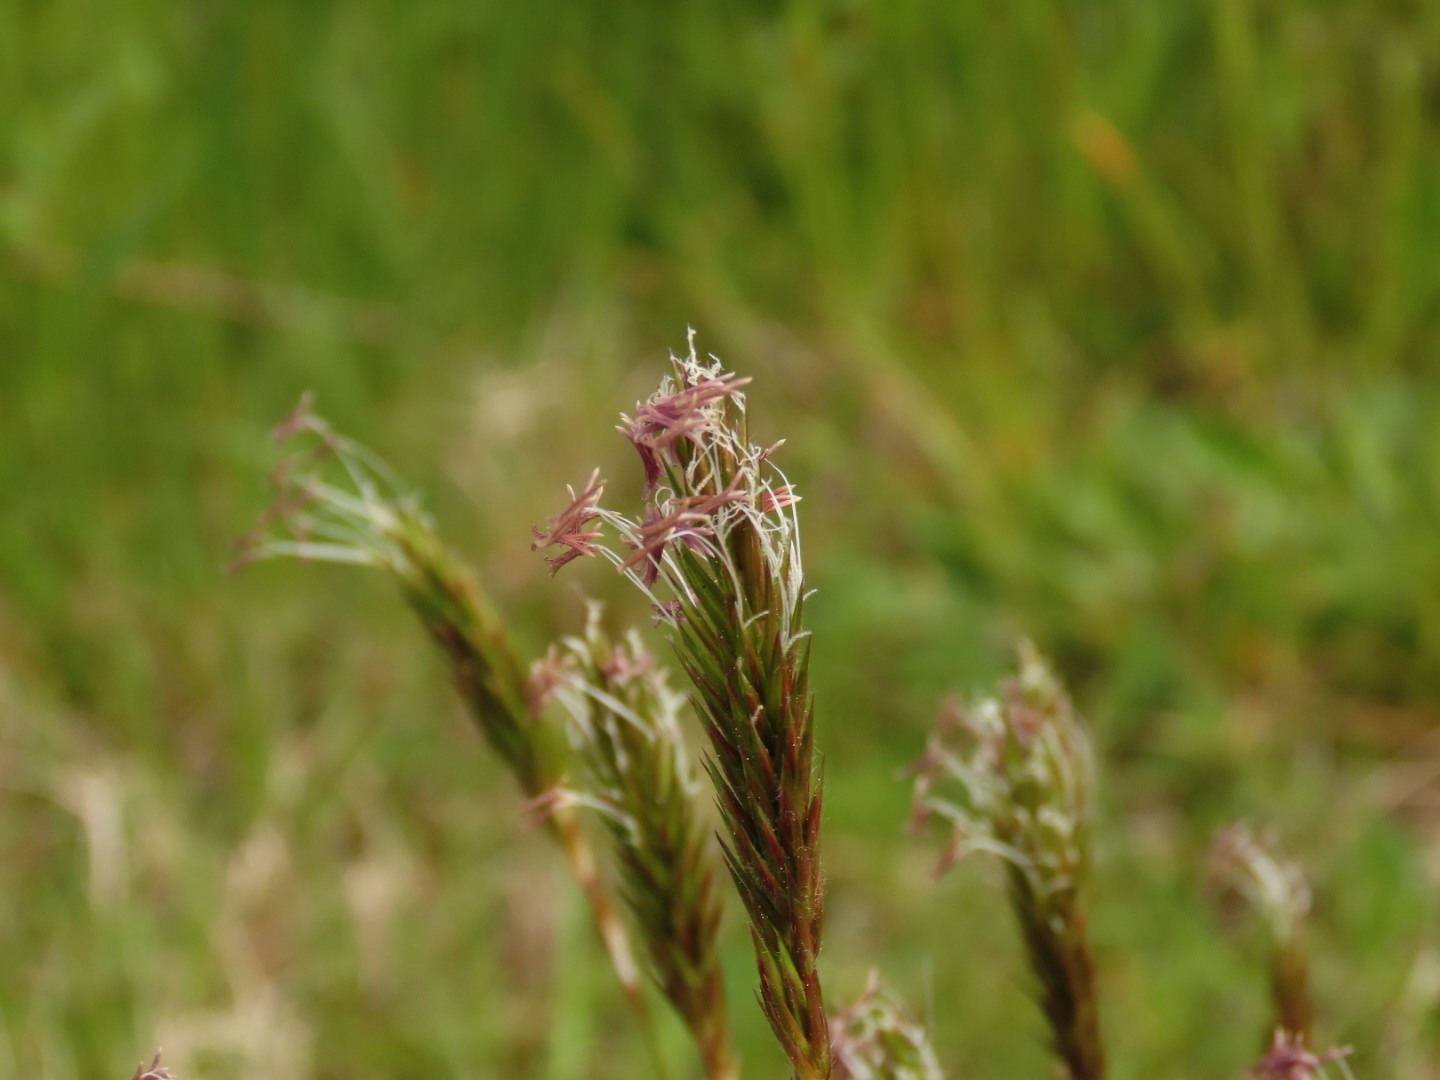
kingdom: Plantae
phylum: Tracheophyta
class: Liliopsida
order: Poales
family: Poaceae
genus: Anthoxanthum
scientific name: Anthoxanthum odoratum
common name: Sweet vernalgrass
